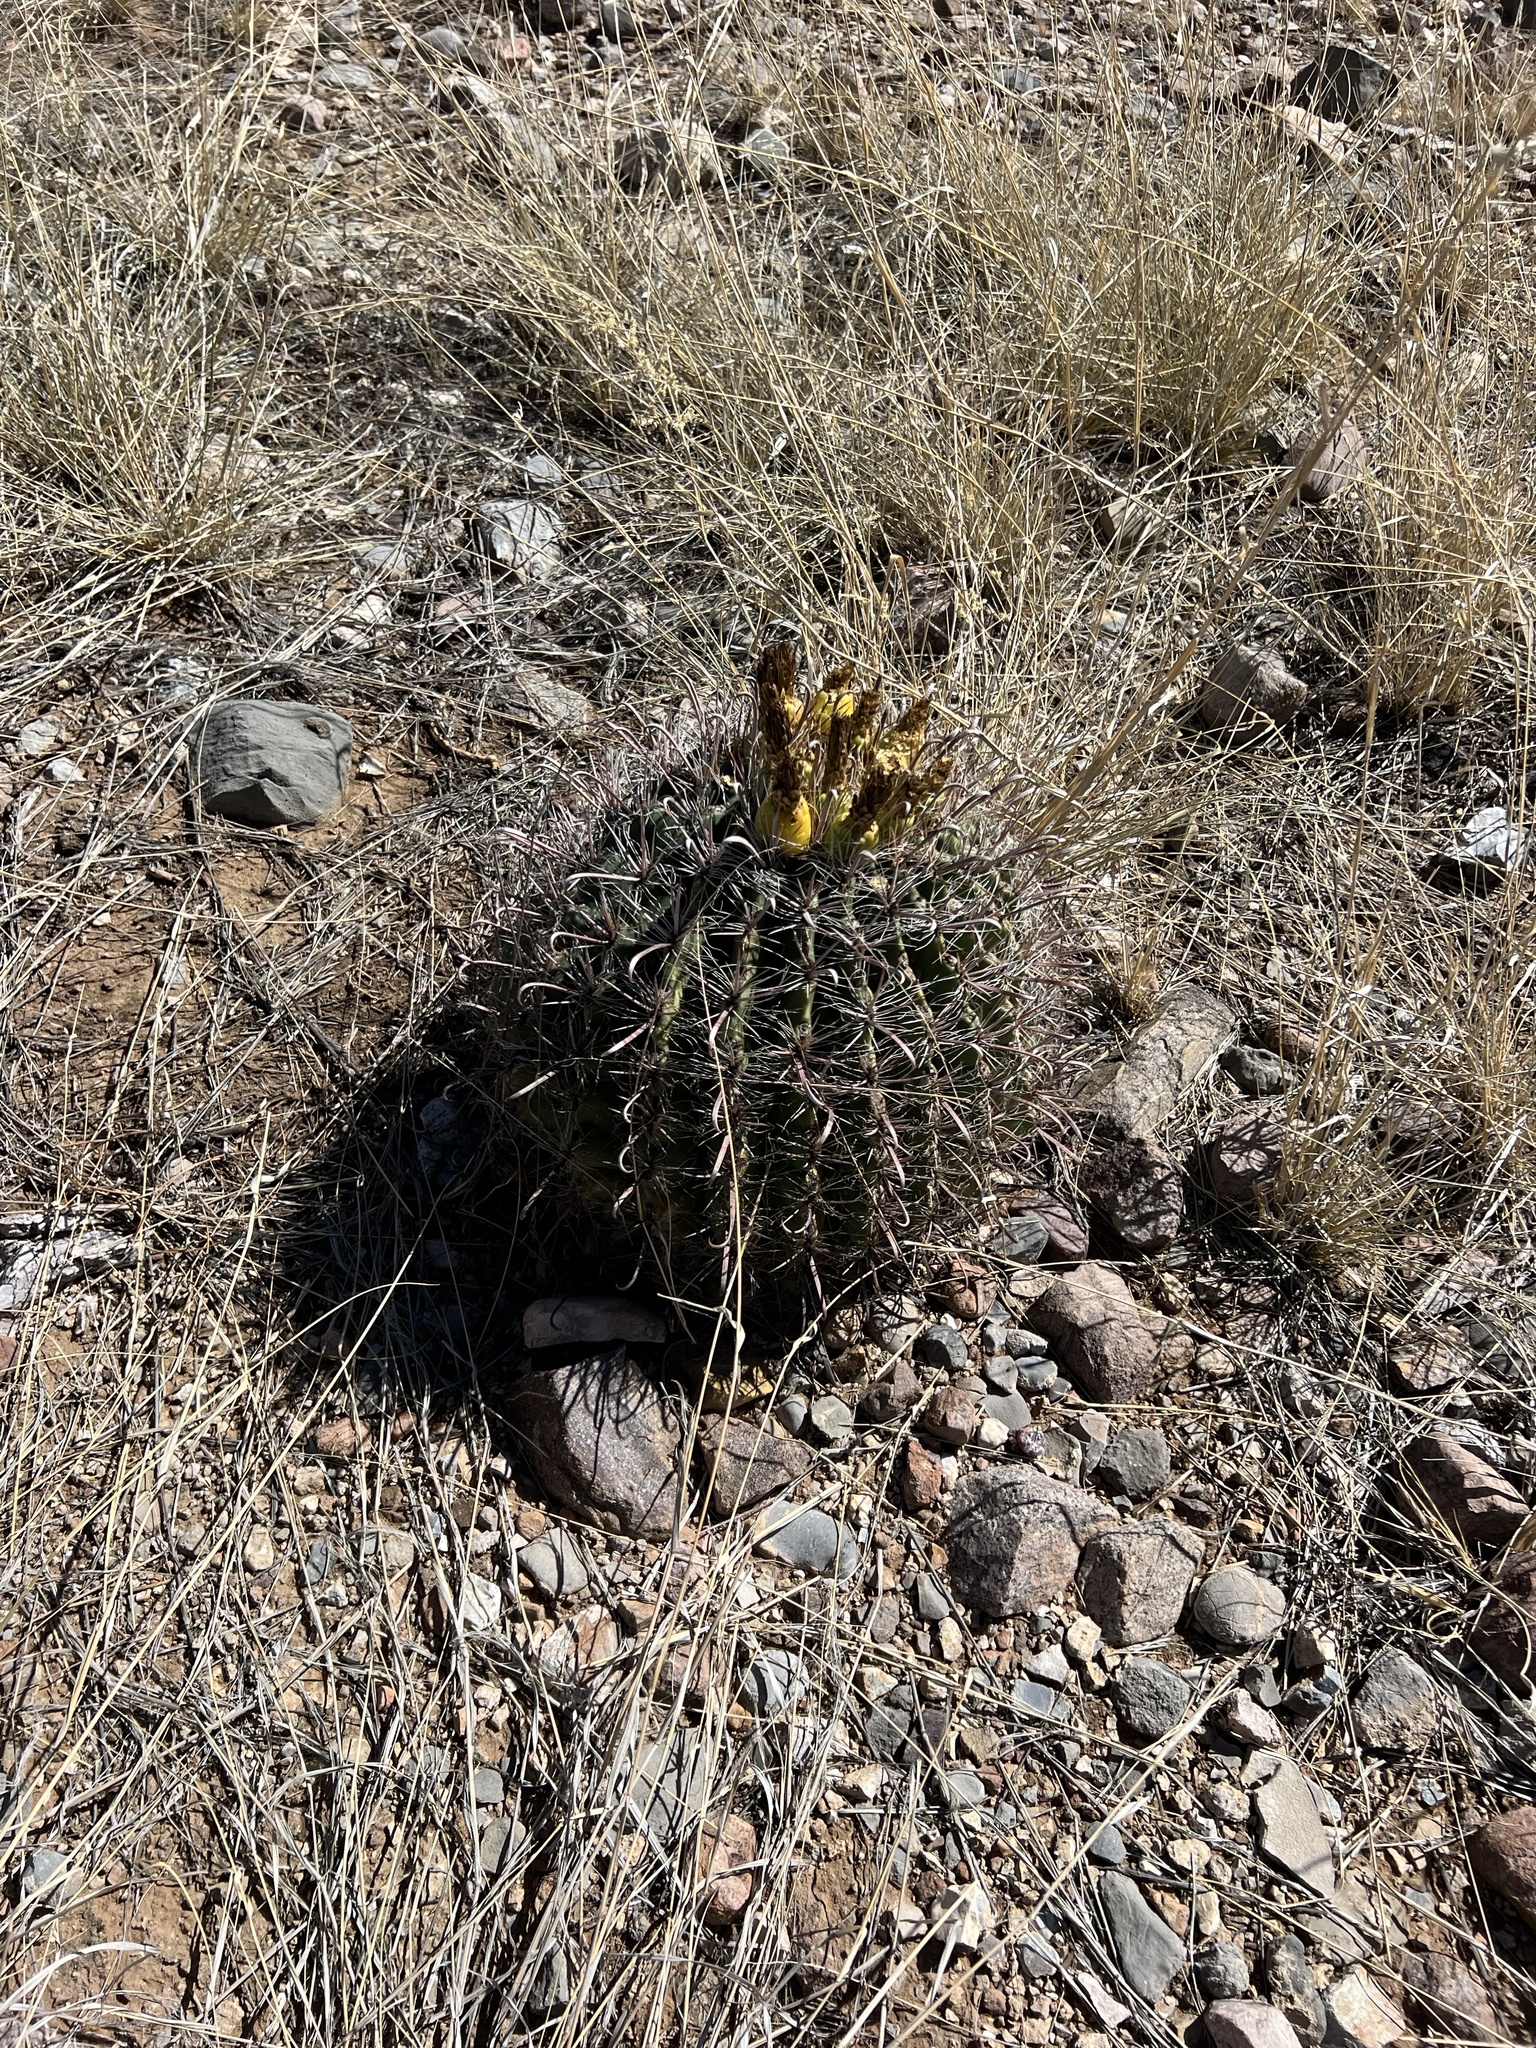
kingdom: Plantae
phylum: Tracheophyta
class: Magnoliopsida
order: Caryophyllales
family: Cactaceae
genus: Ferocactus
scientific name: Ferocactus wislizeni
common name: Candy barrel cactus
